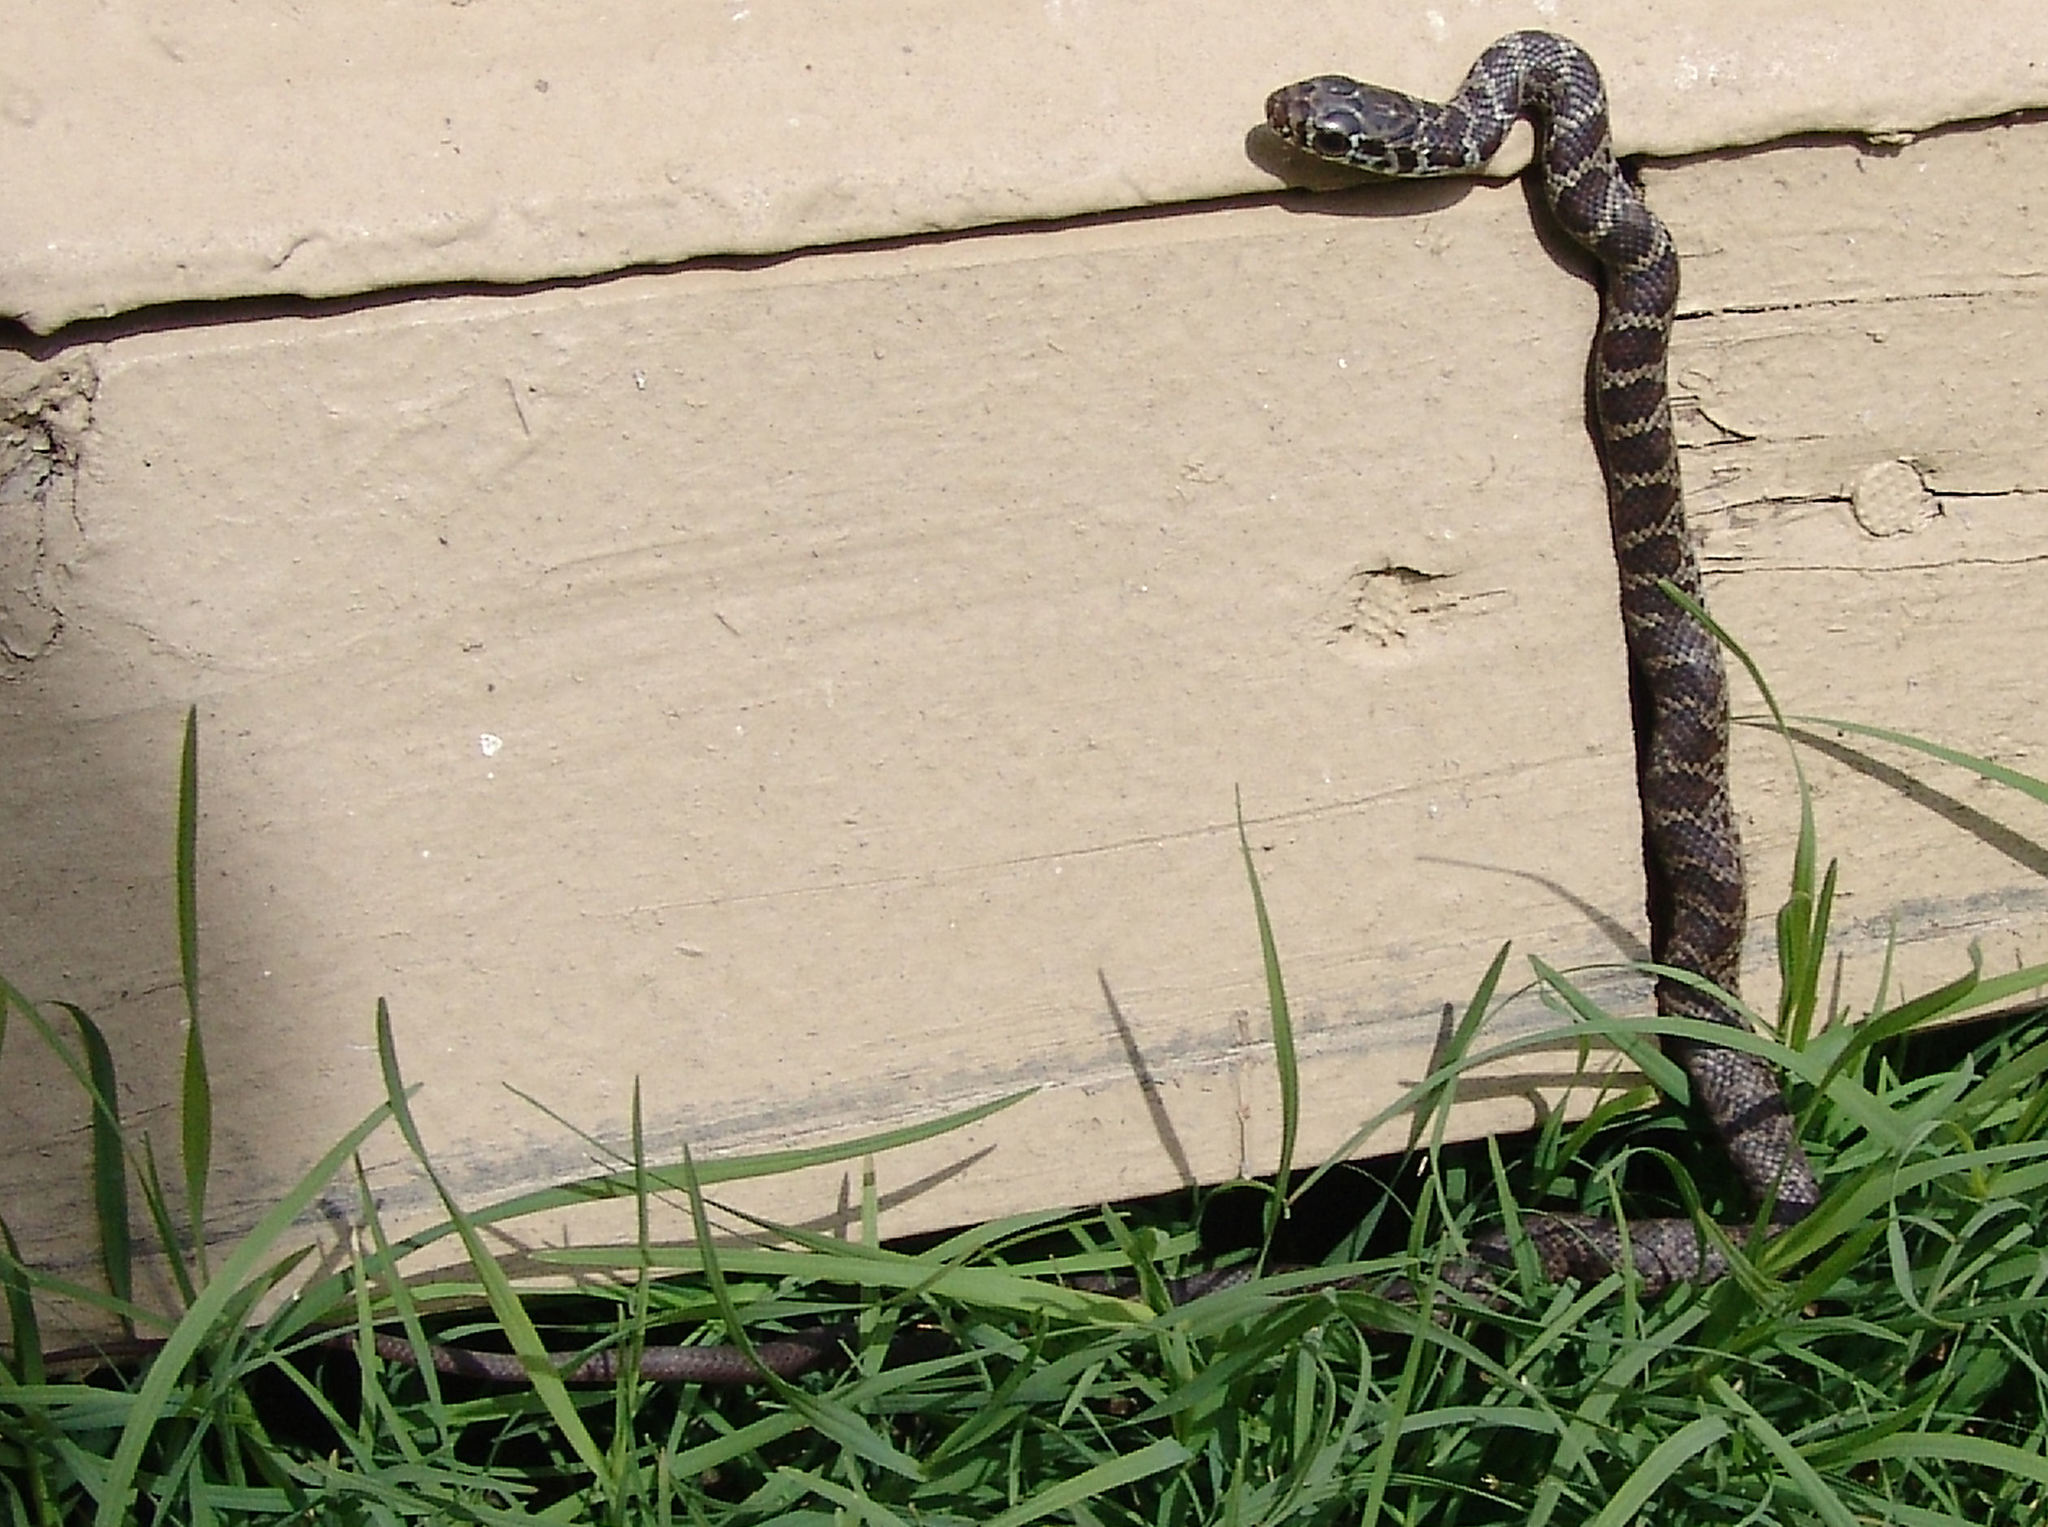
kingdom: Animalia
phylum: Chordata
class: Squamata
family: Colubridae
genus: Coluber
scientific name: Coluber constrictor
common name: Eastern racer
